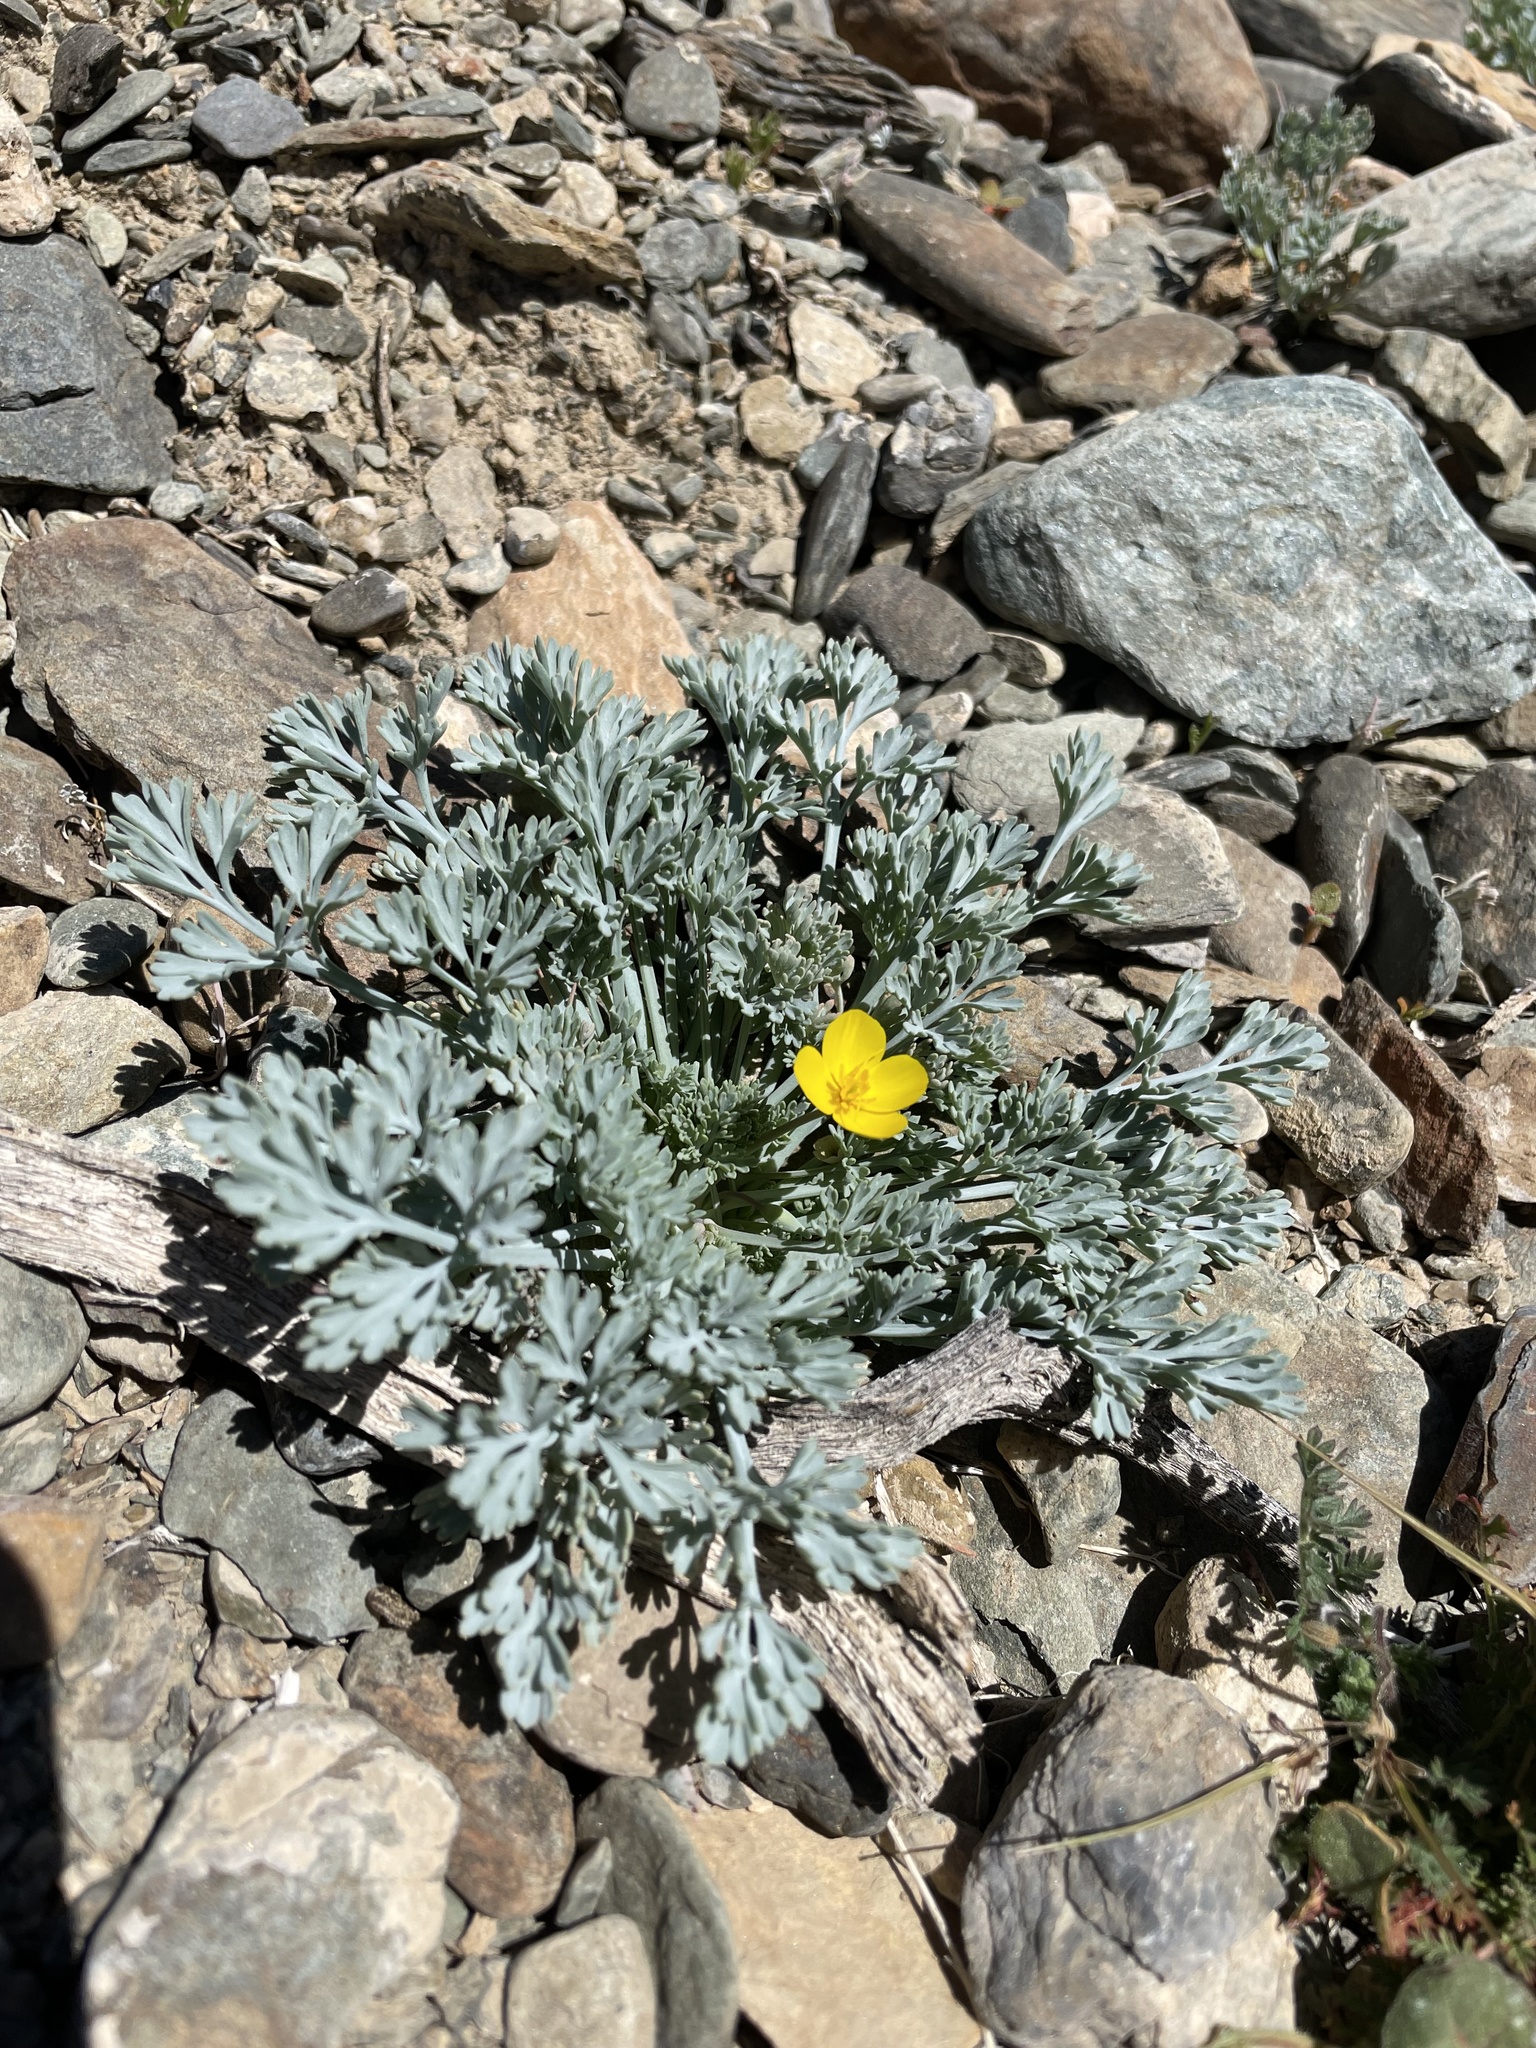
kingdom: Plantae
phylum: Tracheophyta
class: Magnoliopsida
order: Ranunculales
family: Papaveraceae
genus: Eschscholzia
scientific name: Eschscholzia minutiflora
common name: Small-flower california-poppy
